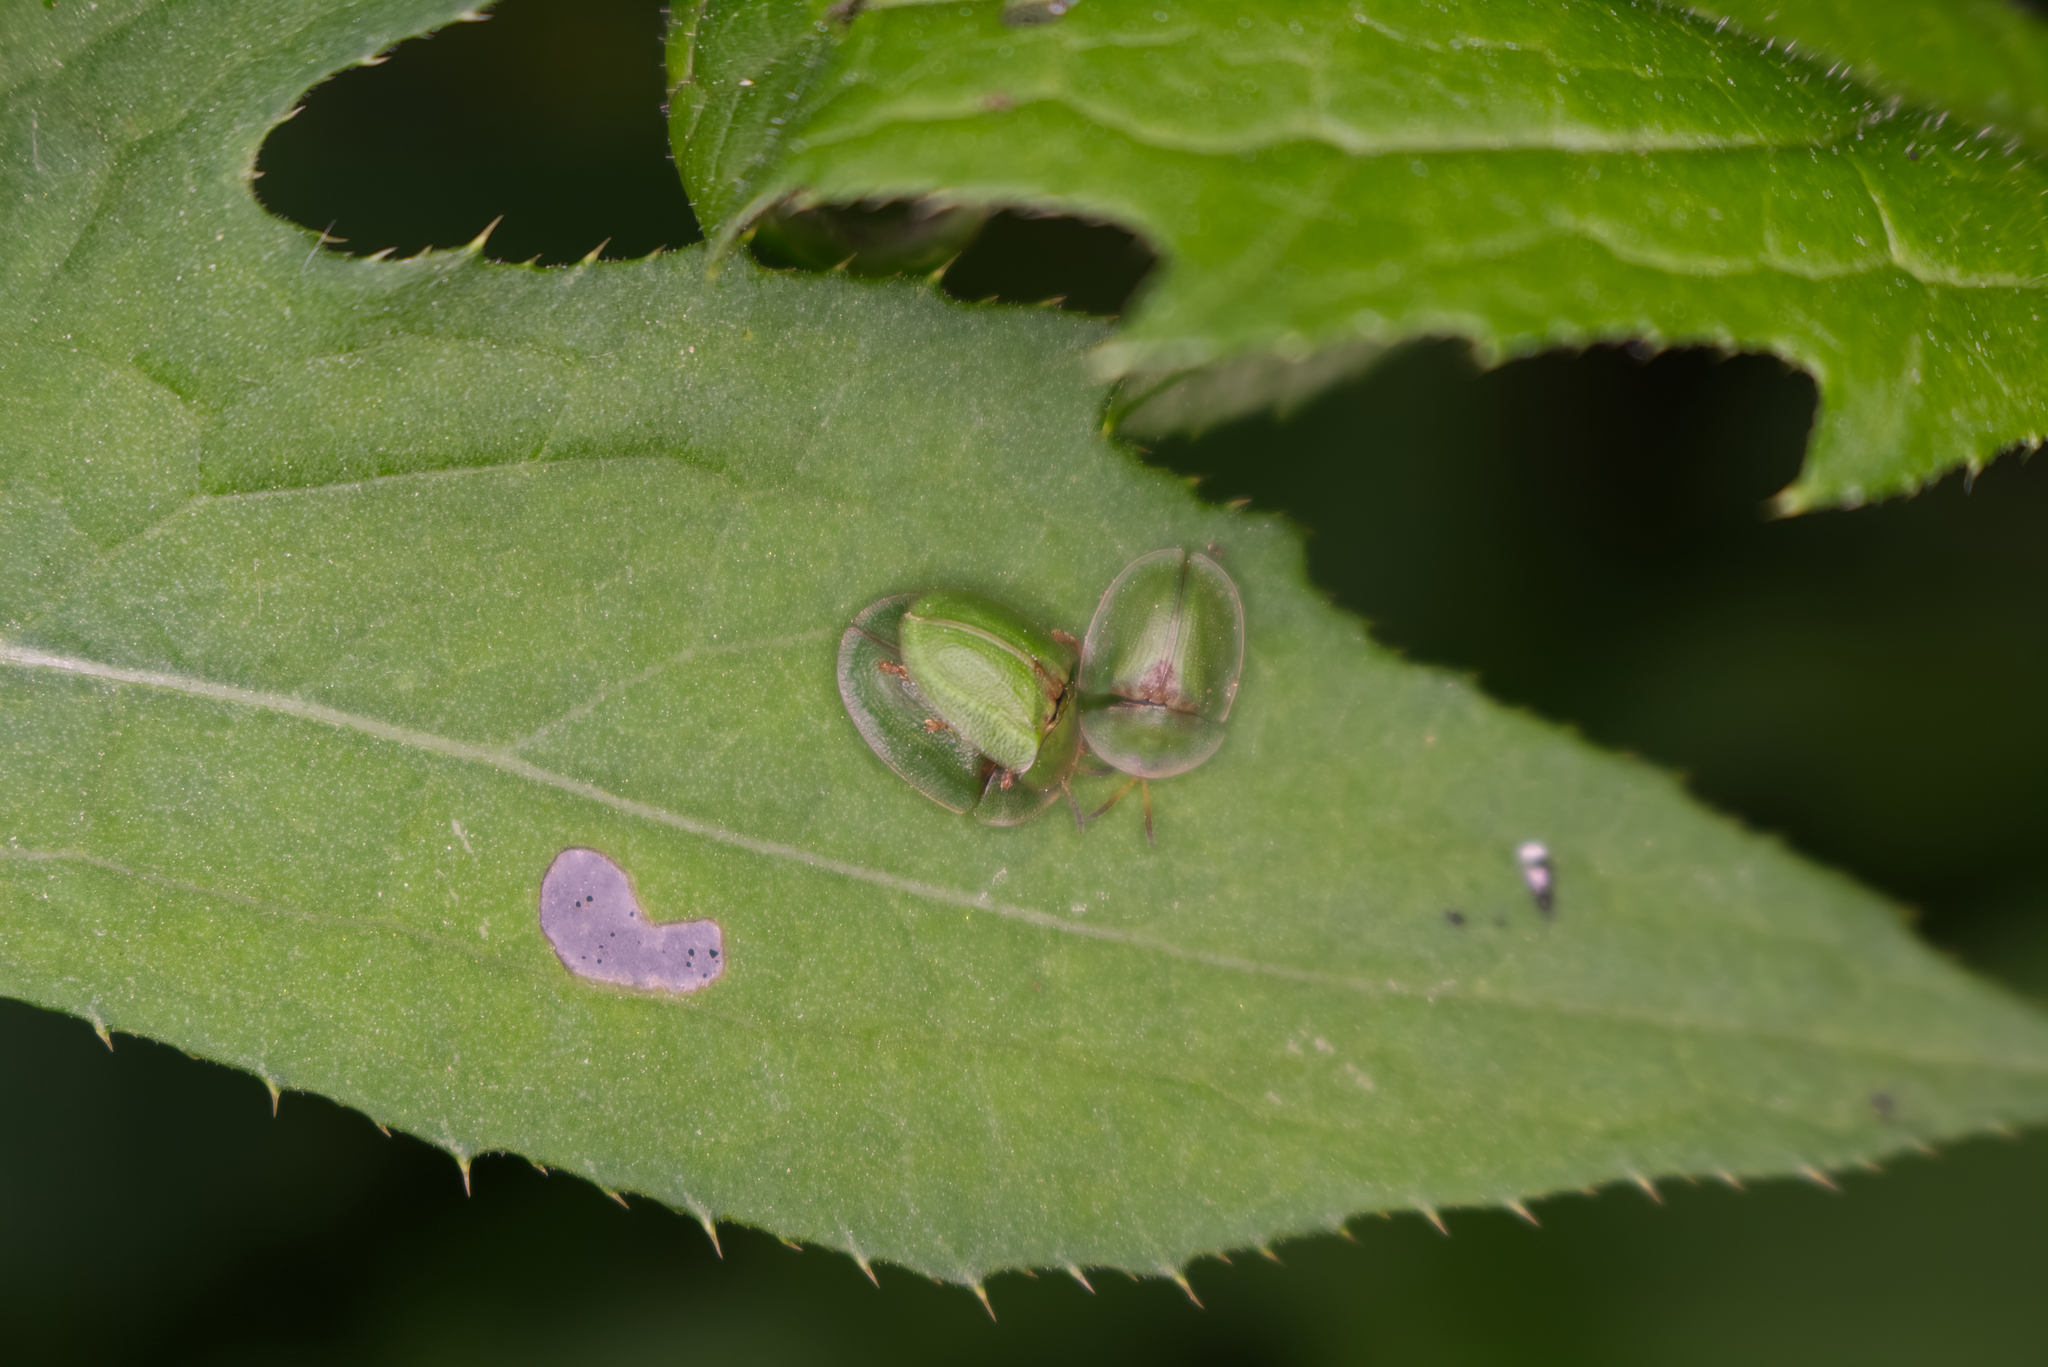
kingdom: Animalia
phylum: Arthropoda
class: Insecta
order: Coleoptera
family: Chrysomelidae
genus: Cassida
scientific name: Cassida rubiginosa
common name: Thistle tortoise beetle
